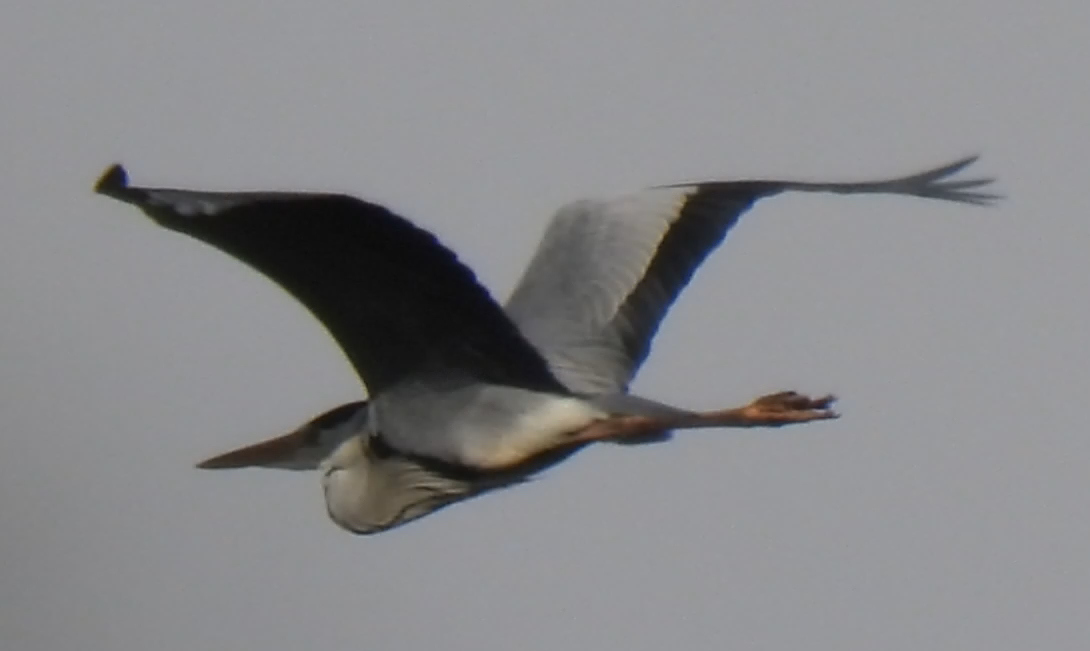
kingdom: Animalia
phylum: Chordata
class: Aves
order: Pelecaniformes
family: Ardeidae
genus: Ardea
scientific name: Ardea cinerea
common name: Grey heron
